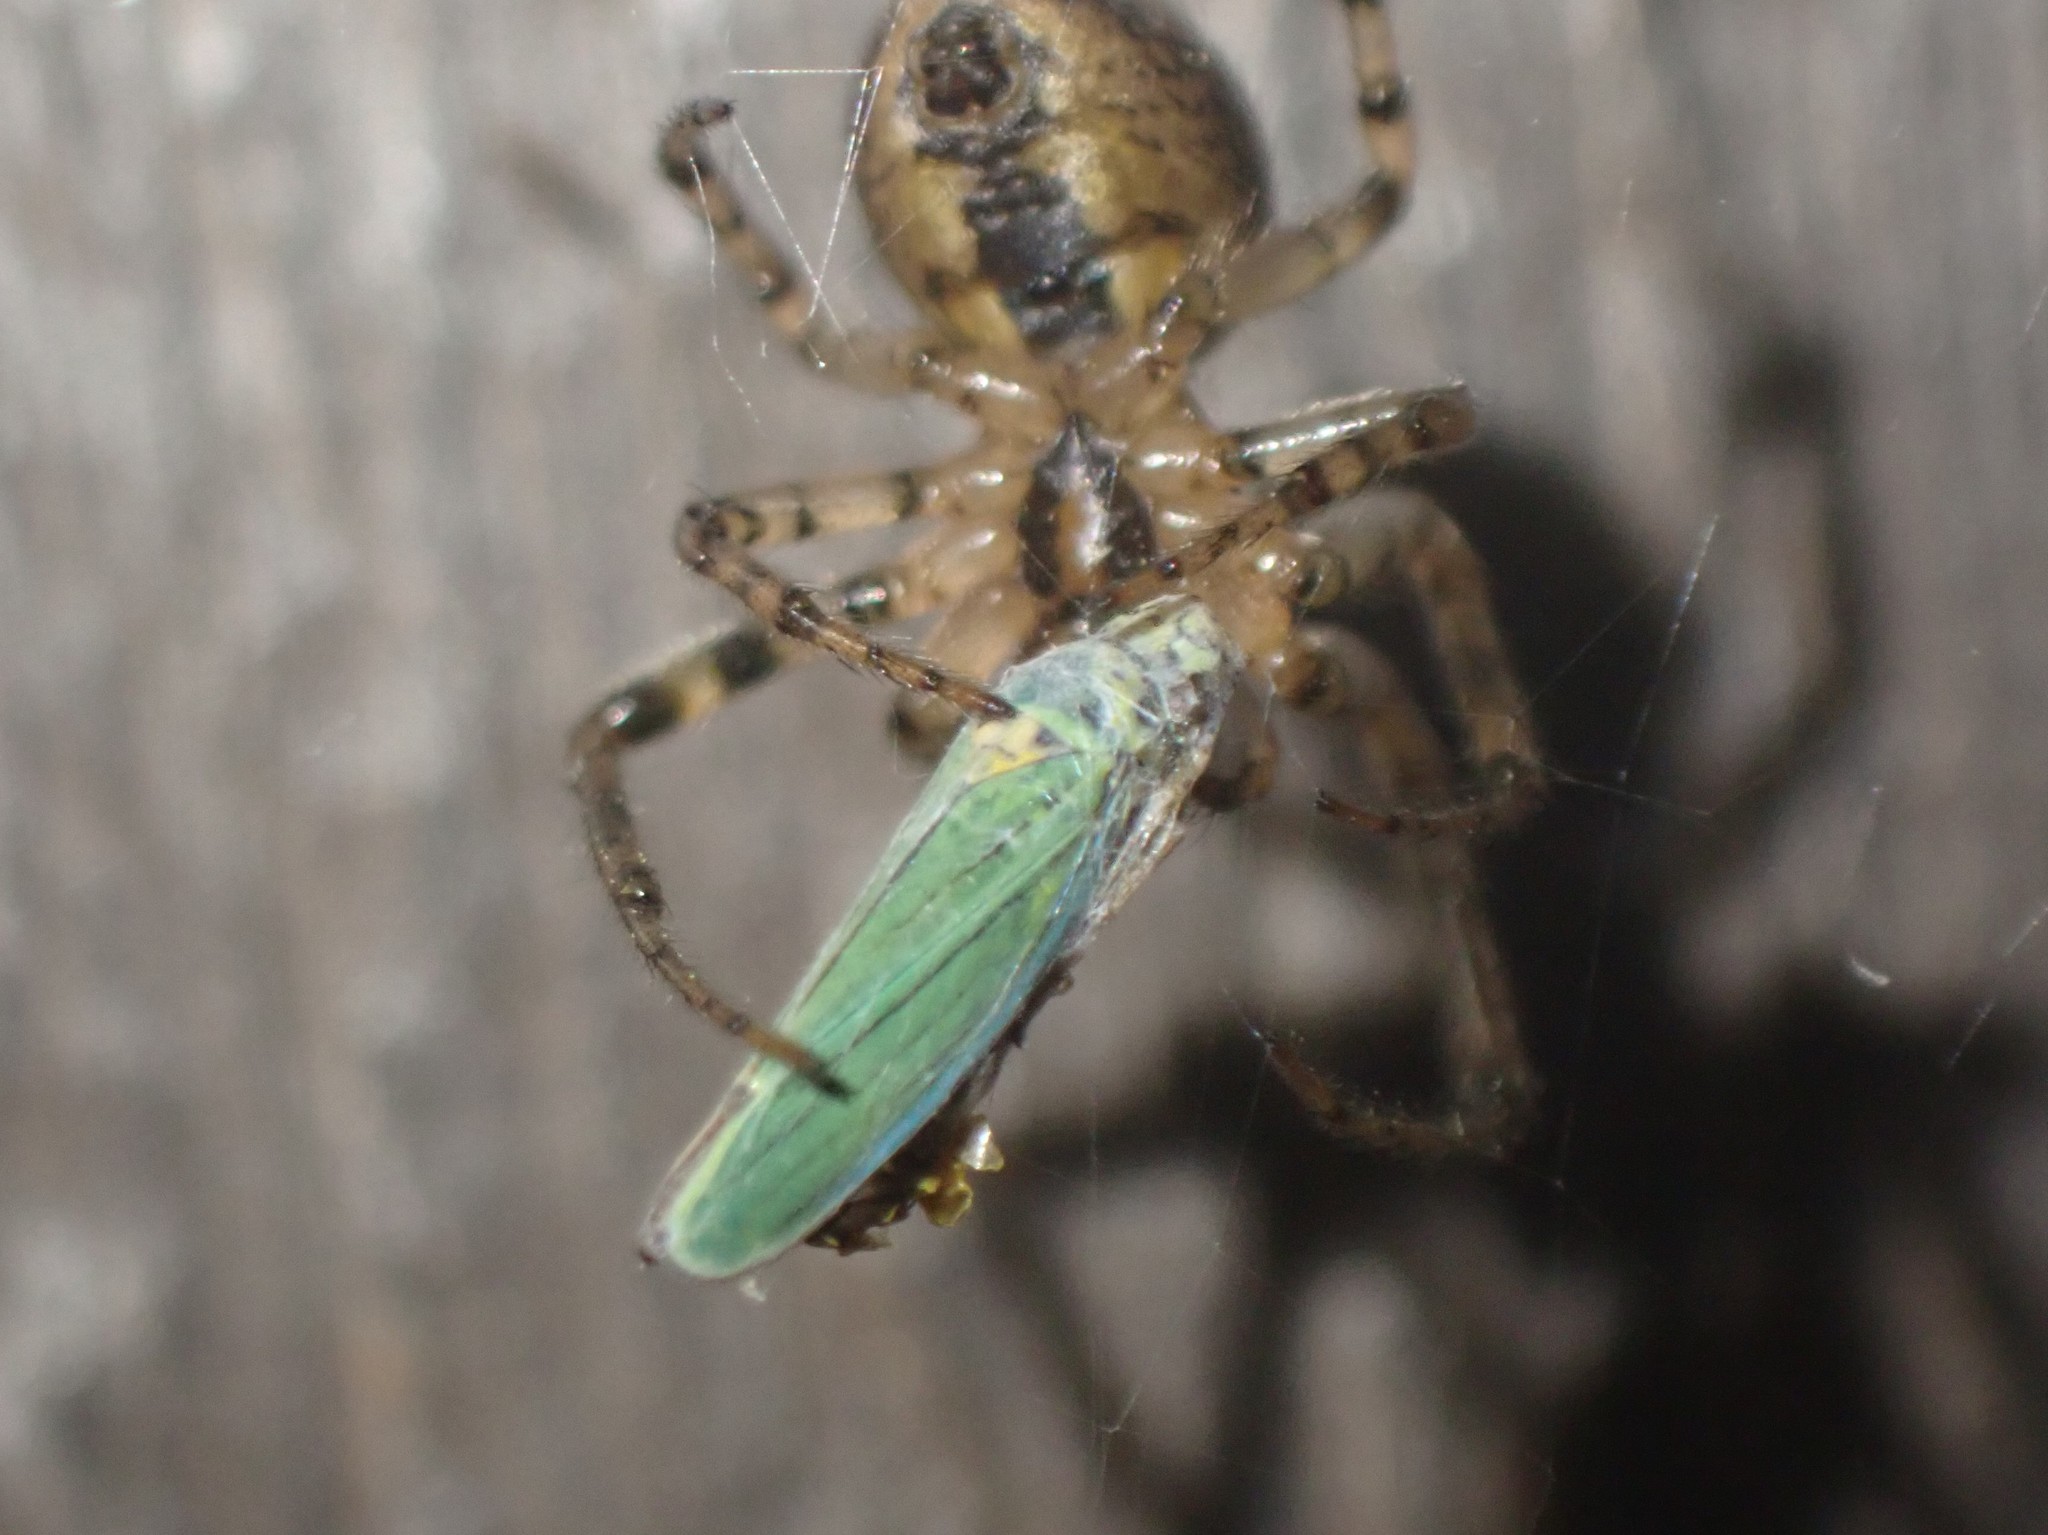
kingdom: Animalia
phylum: Arthropoda
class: Insecta
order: Hemiptera
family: Cicadellidae
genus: Graphocephala
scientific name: Graphocephala atropunctata
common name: Blue-green sharpshooter
